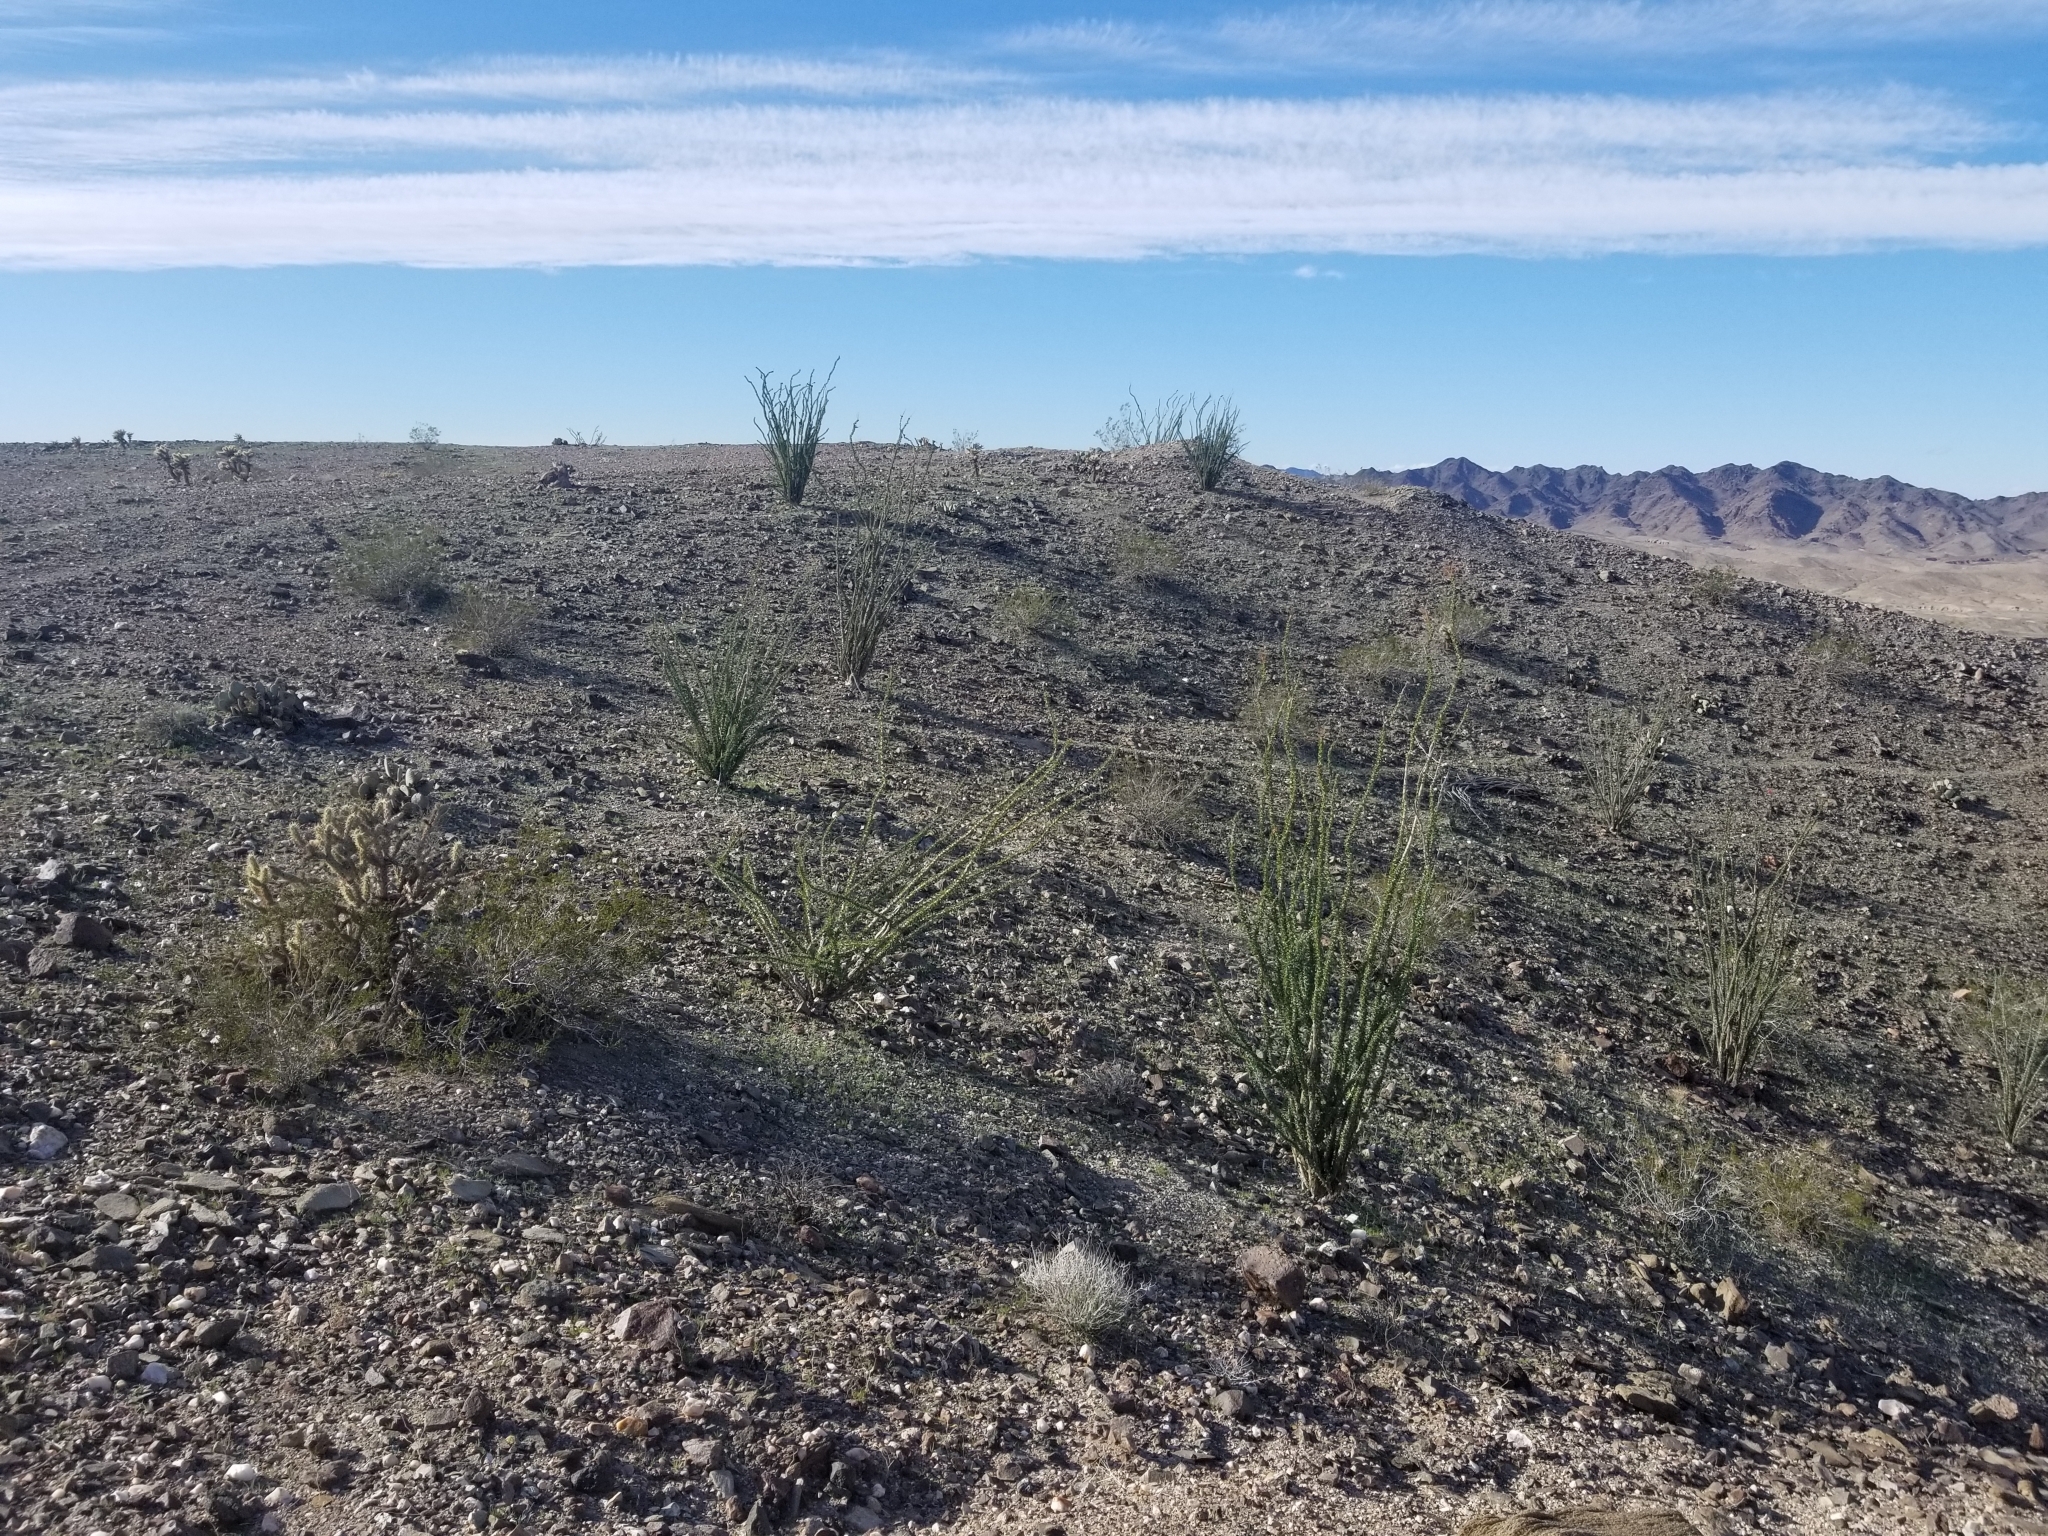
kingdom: Plantae
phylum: Tracheophyta
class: Magnoliopsida
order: Ericales
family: Fouquieriaceae
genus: Fouquieria
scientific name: Fouquieria splendens
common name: Vine-cactus
